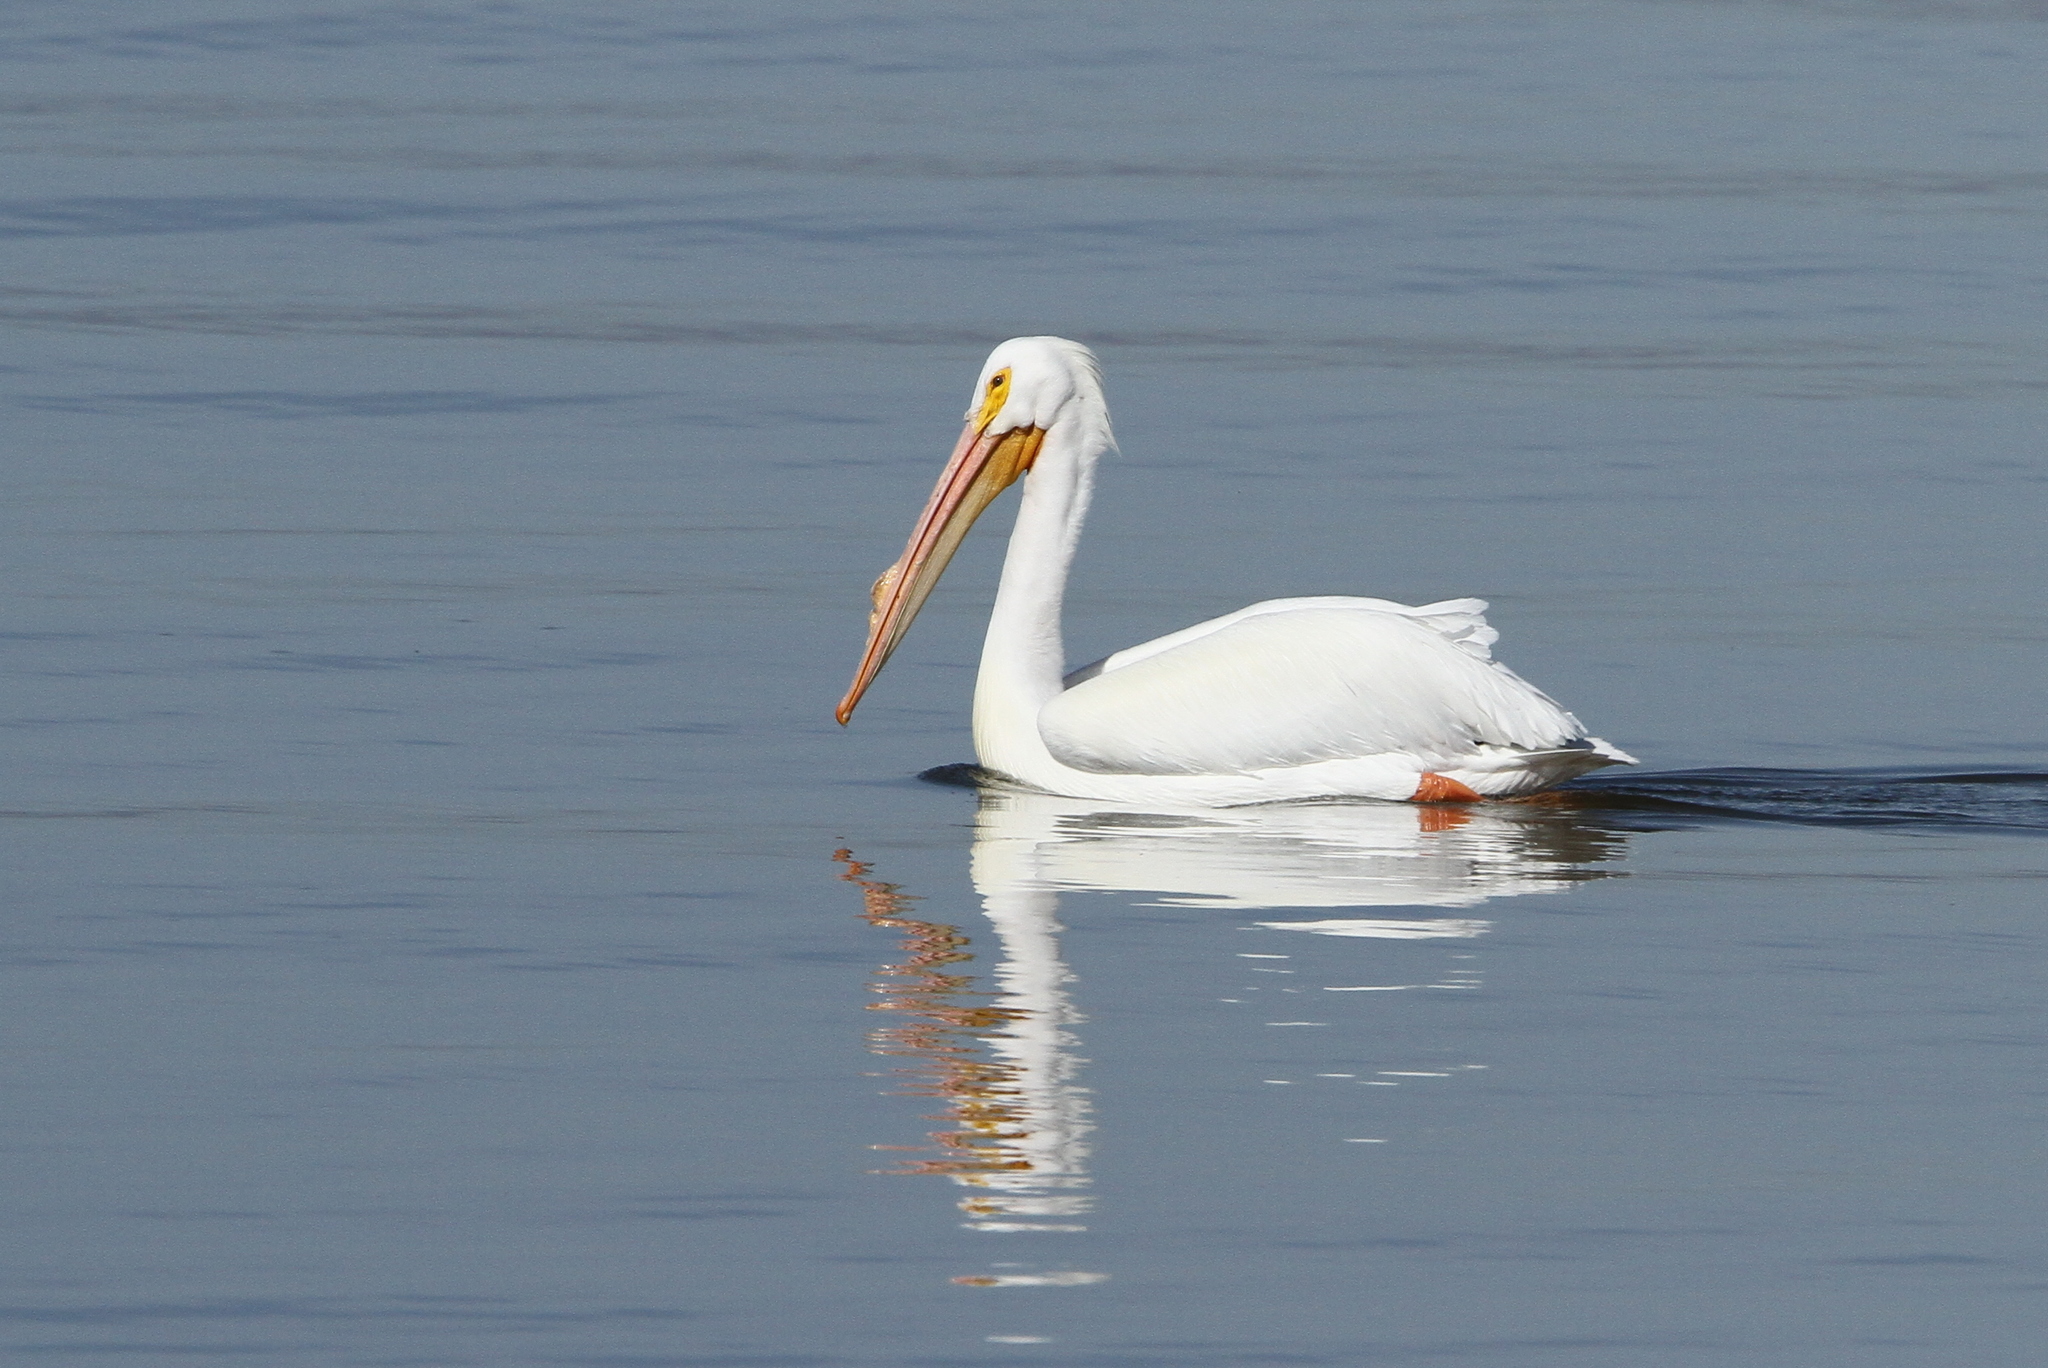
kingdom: Animalia
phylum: Chordata
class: Aves
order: Pelecaniformes
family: Pelecanidae
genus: Pelecanus
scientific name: Pelecanus erythrorhynchos
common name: American white pelican
